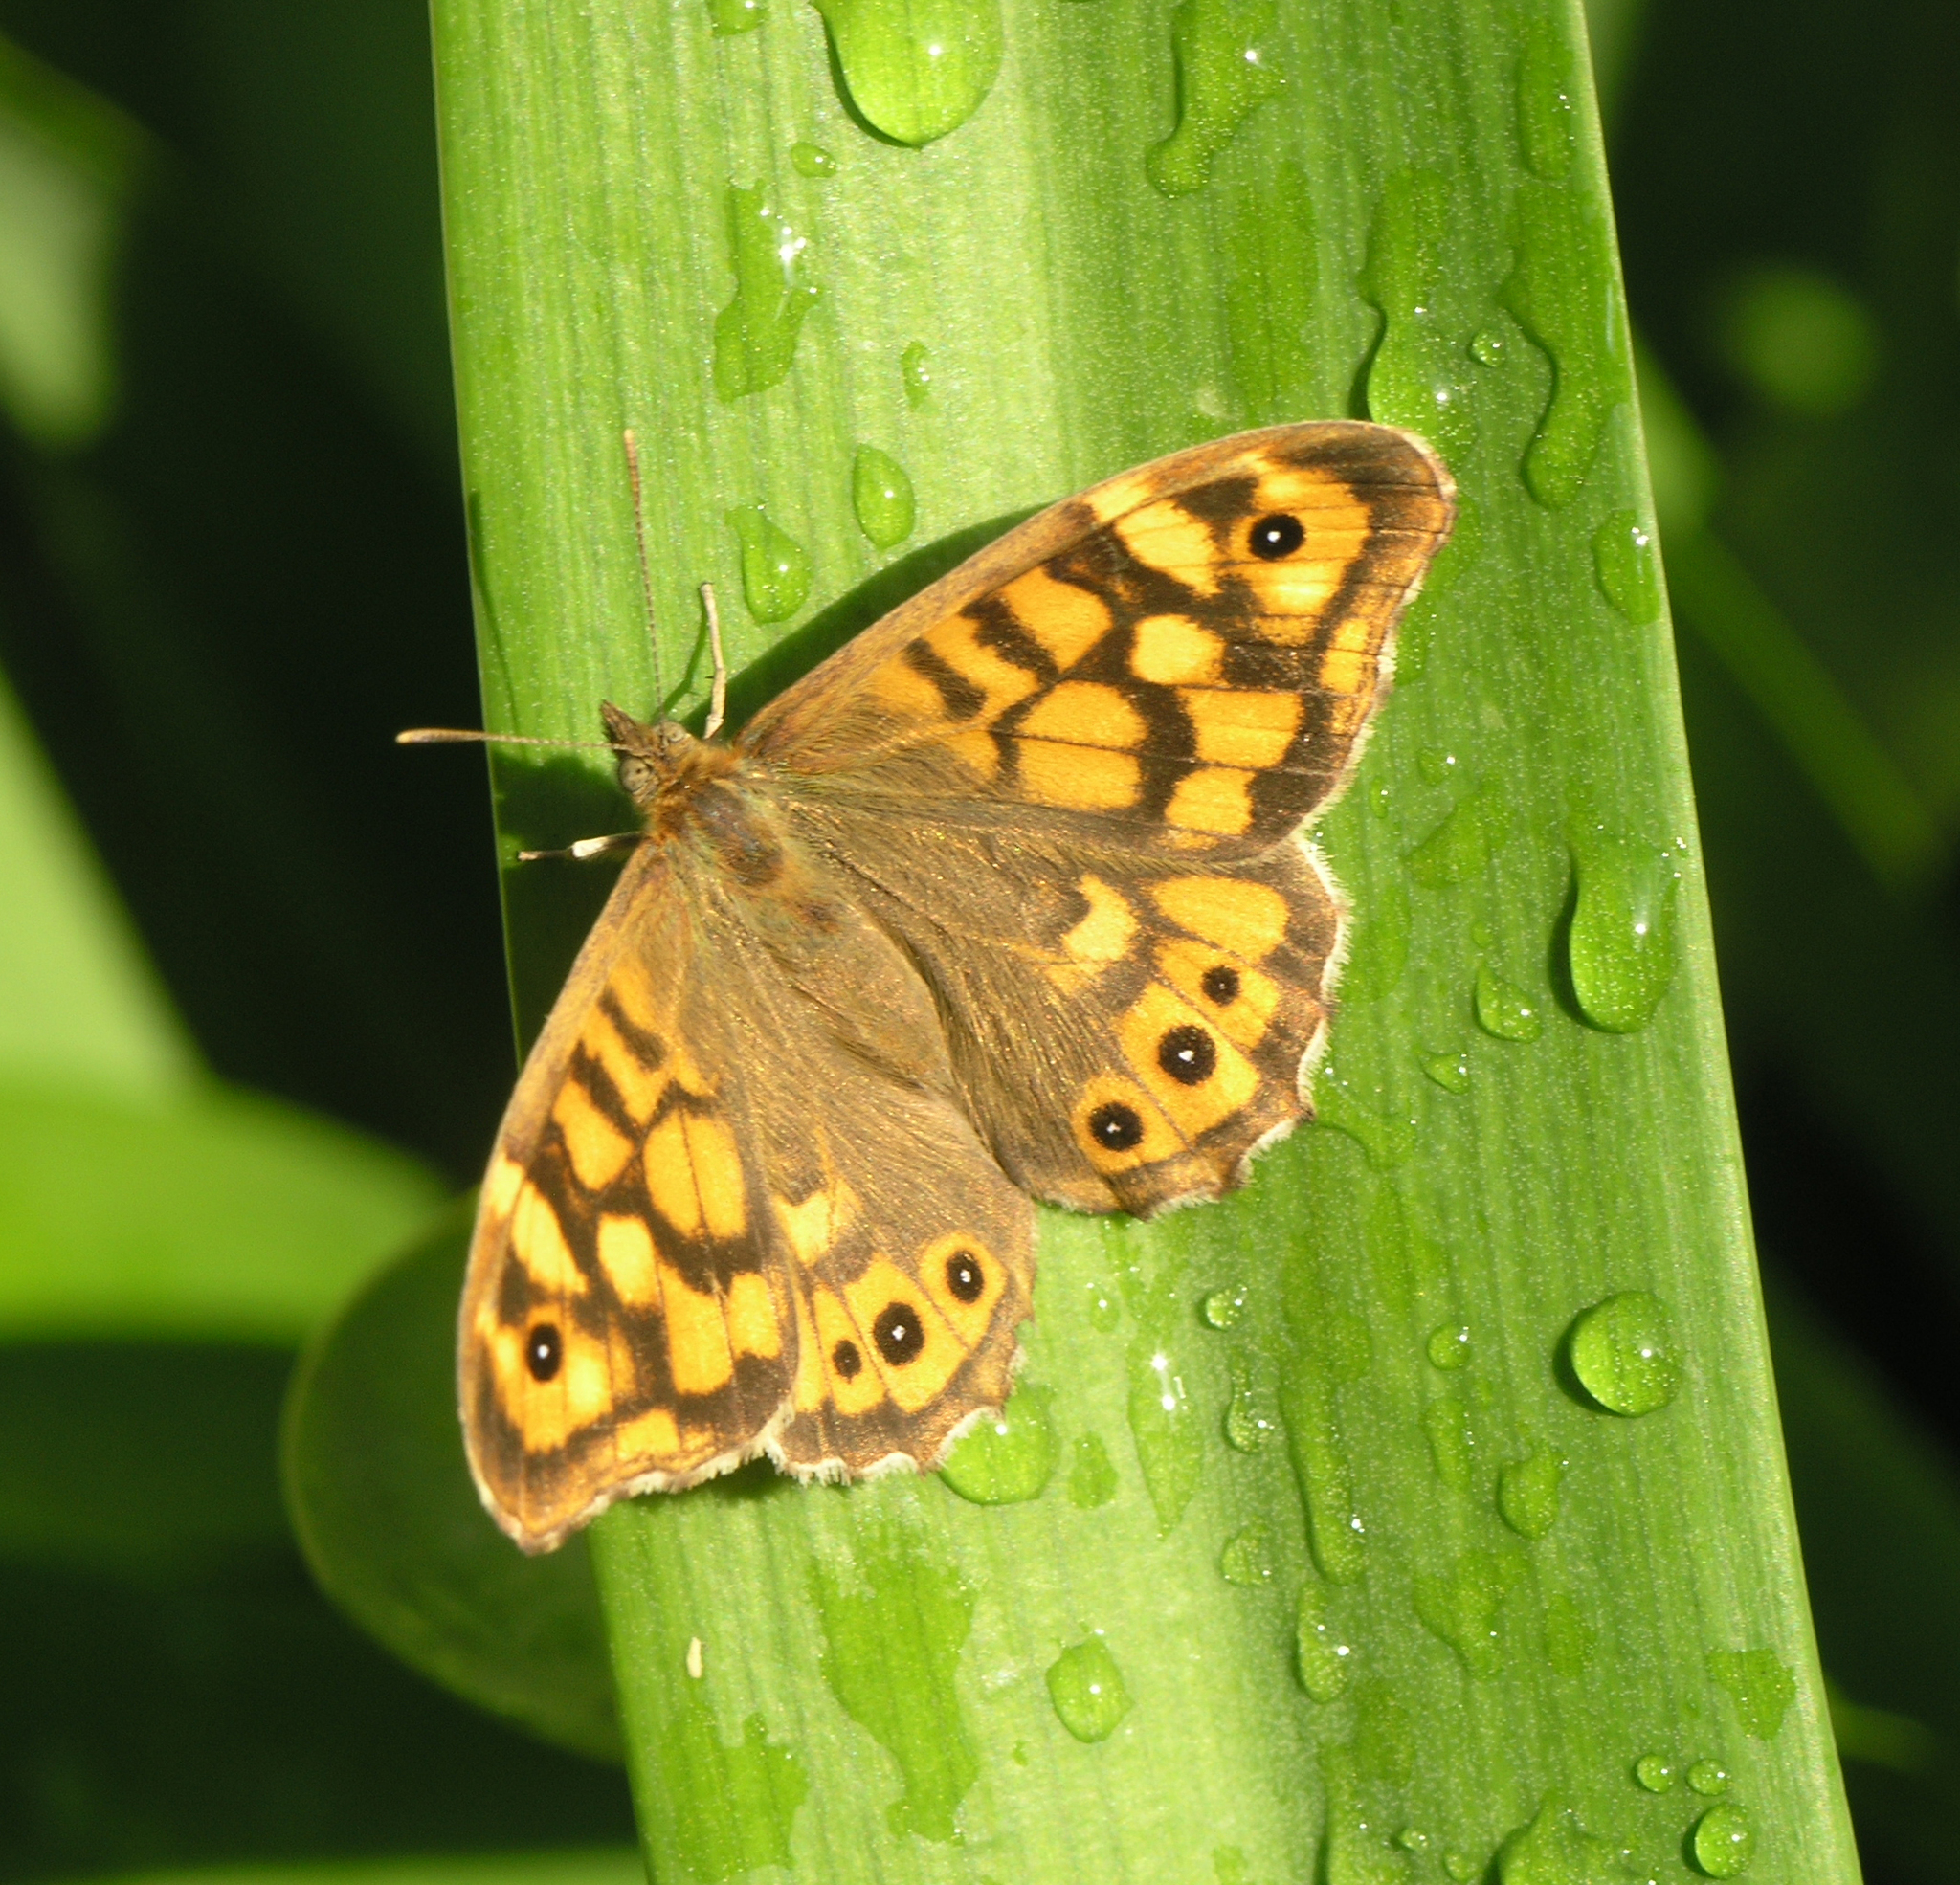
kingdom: Animalia
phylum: Arthropoda
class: Insecta
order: Lepidoptera
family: Nymphalidae
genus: Pararge
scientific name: Pararge aegeria
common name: Speckled wood
